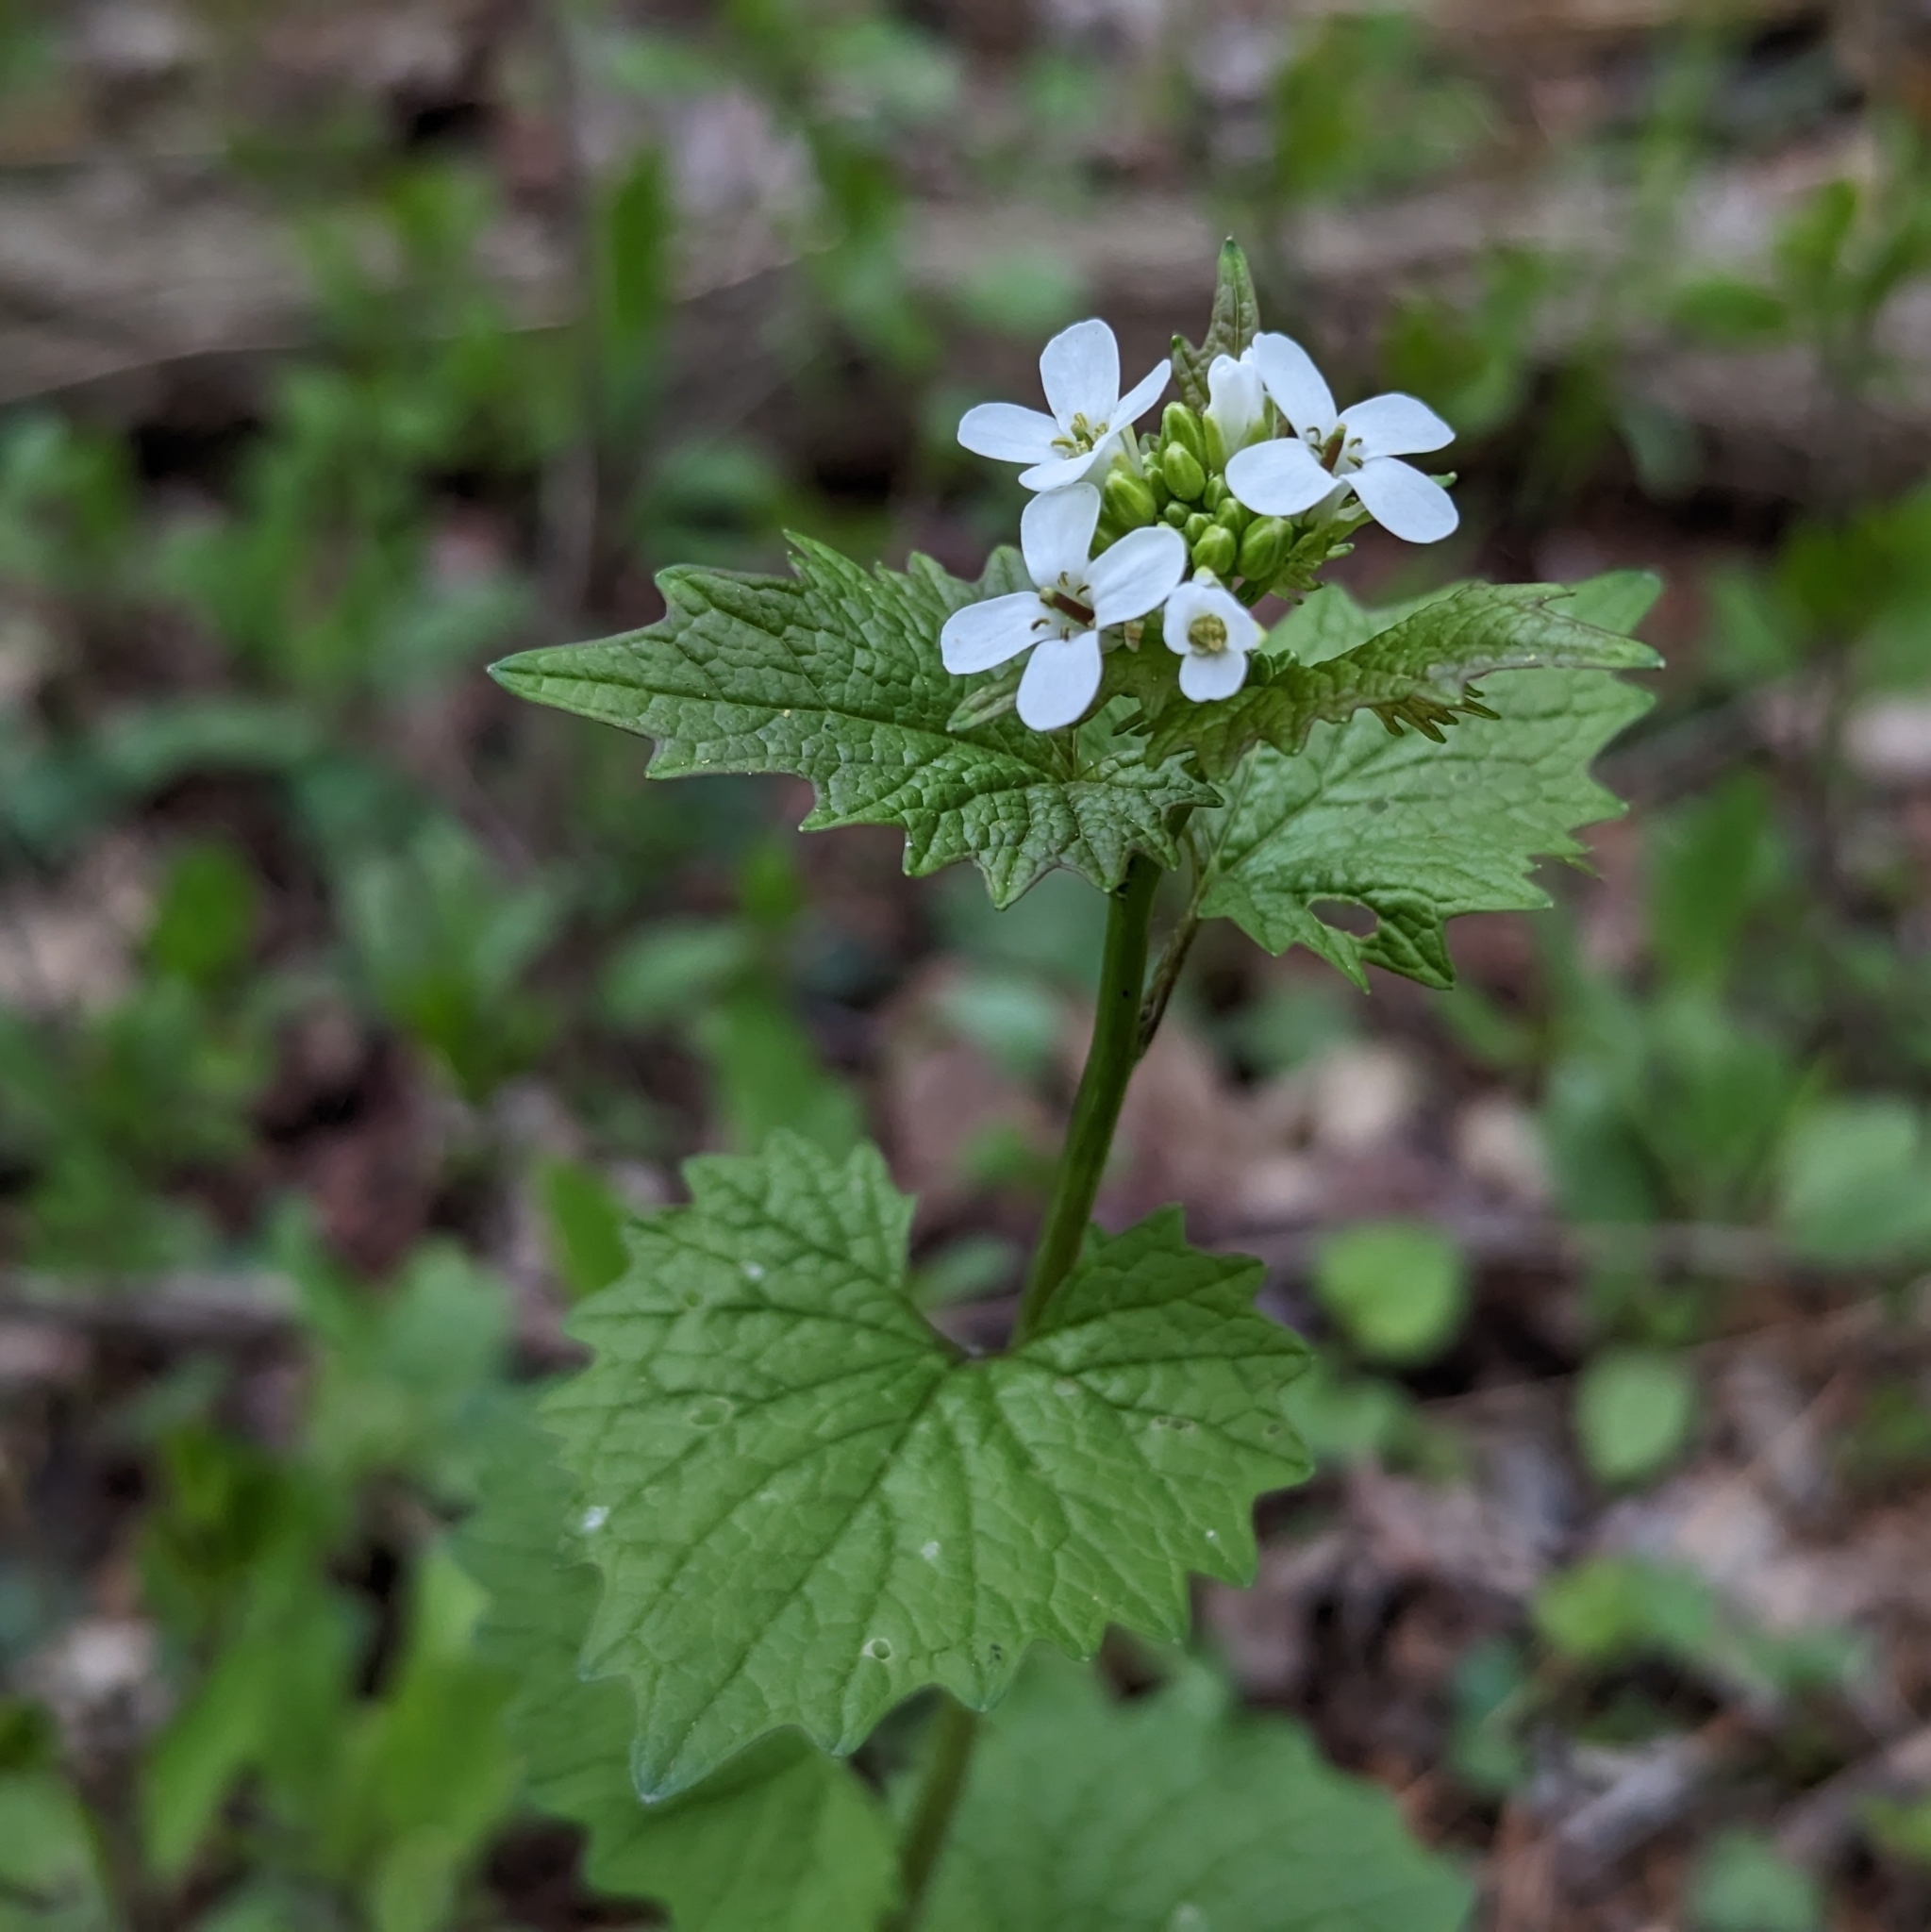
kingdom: Plantae
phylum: Tracheophyta
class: Magnoliopsida
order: Brassicales
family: Brassicaceae
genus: Alliaria
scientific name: Alliaria petiolata
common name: Garlic mustard
